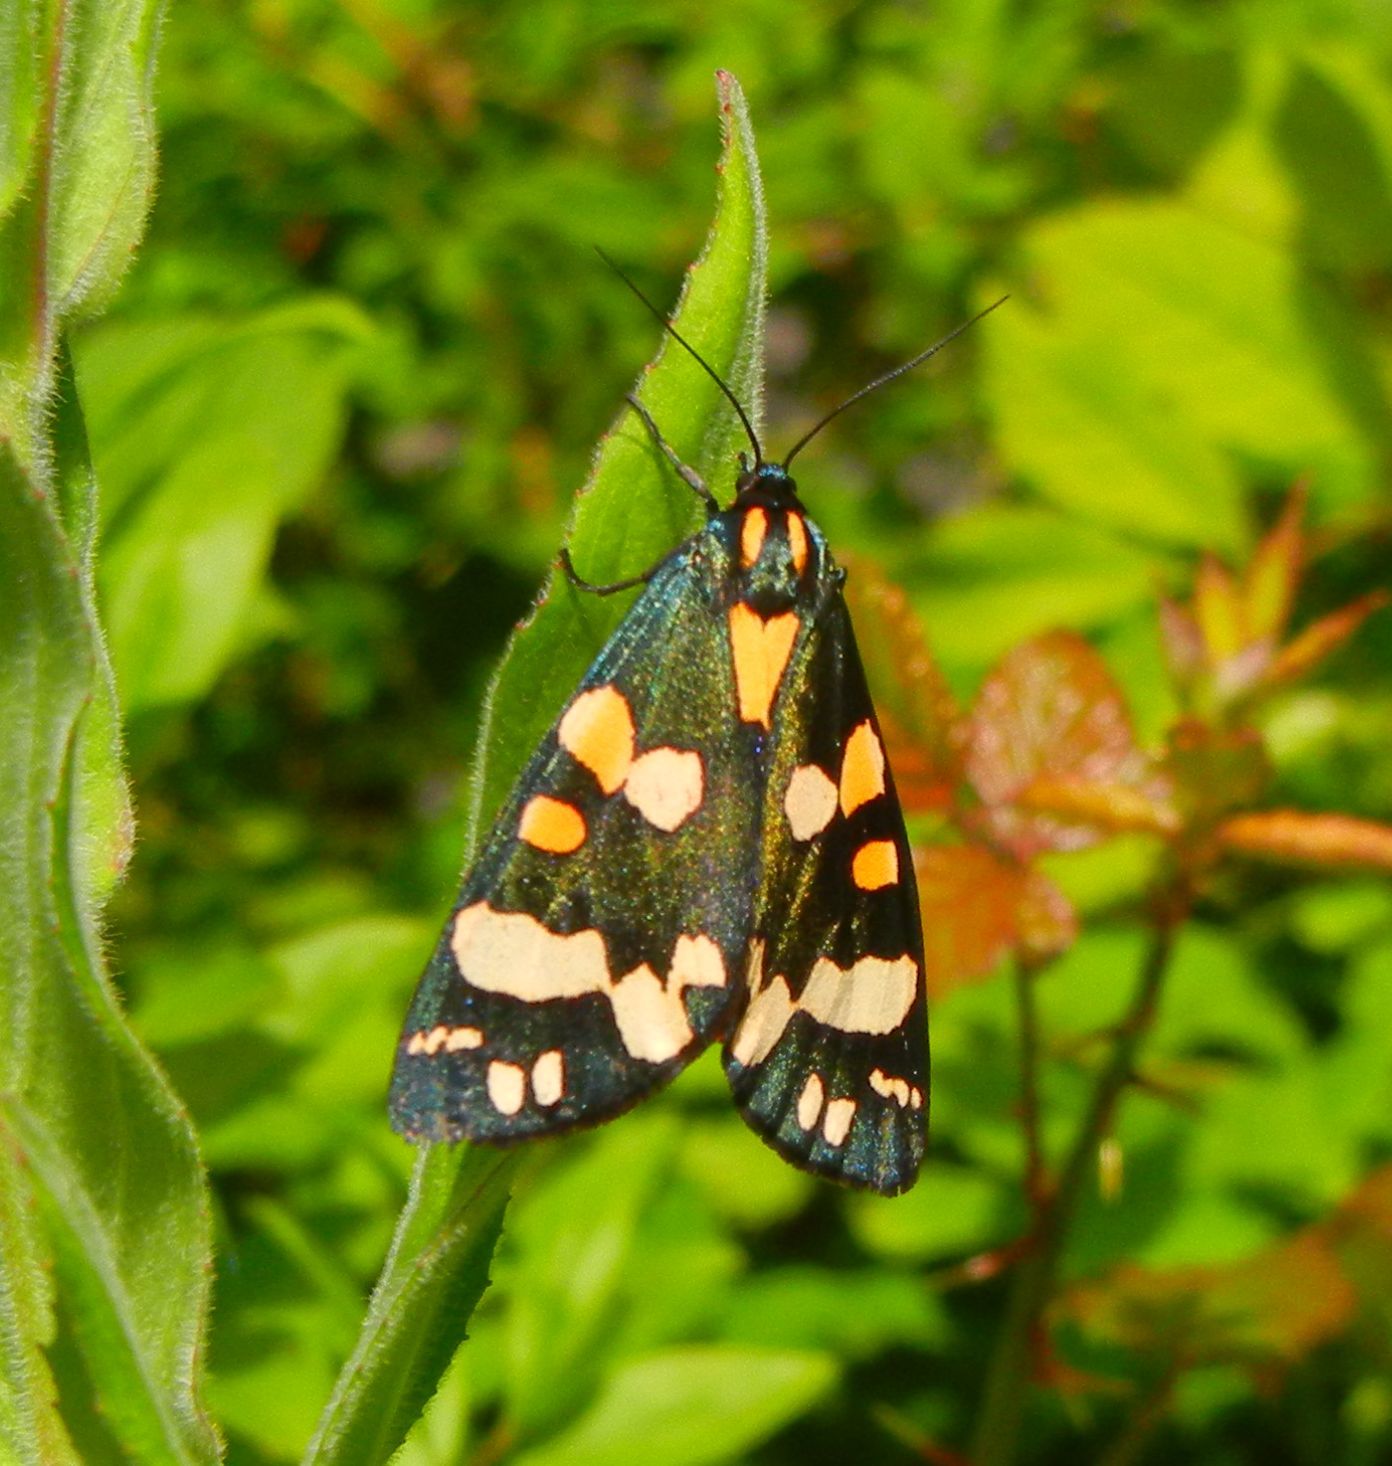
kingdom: Animalia
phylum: Arthropoda
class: Insecta
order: Lepidoptera
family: Erebidae
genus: Callimorpha
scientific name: Callimorpha dominula
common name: Scarlet tiger
